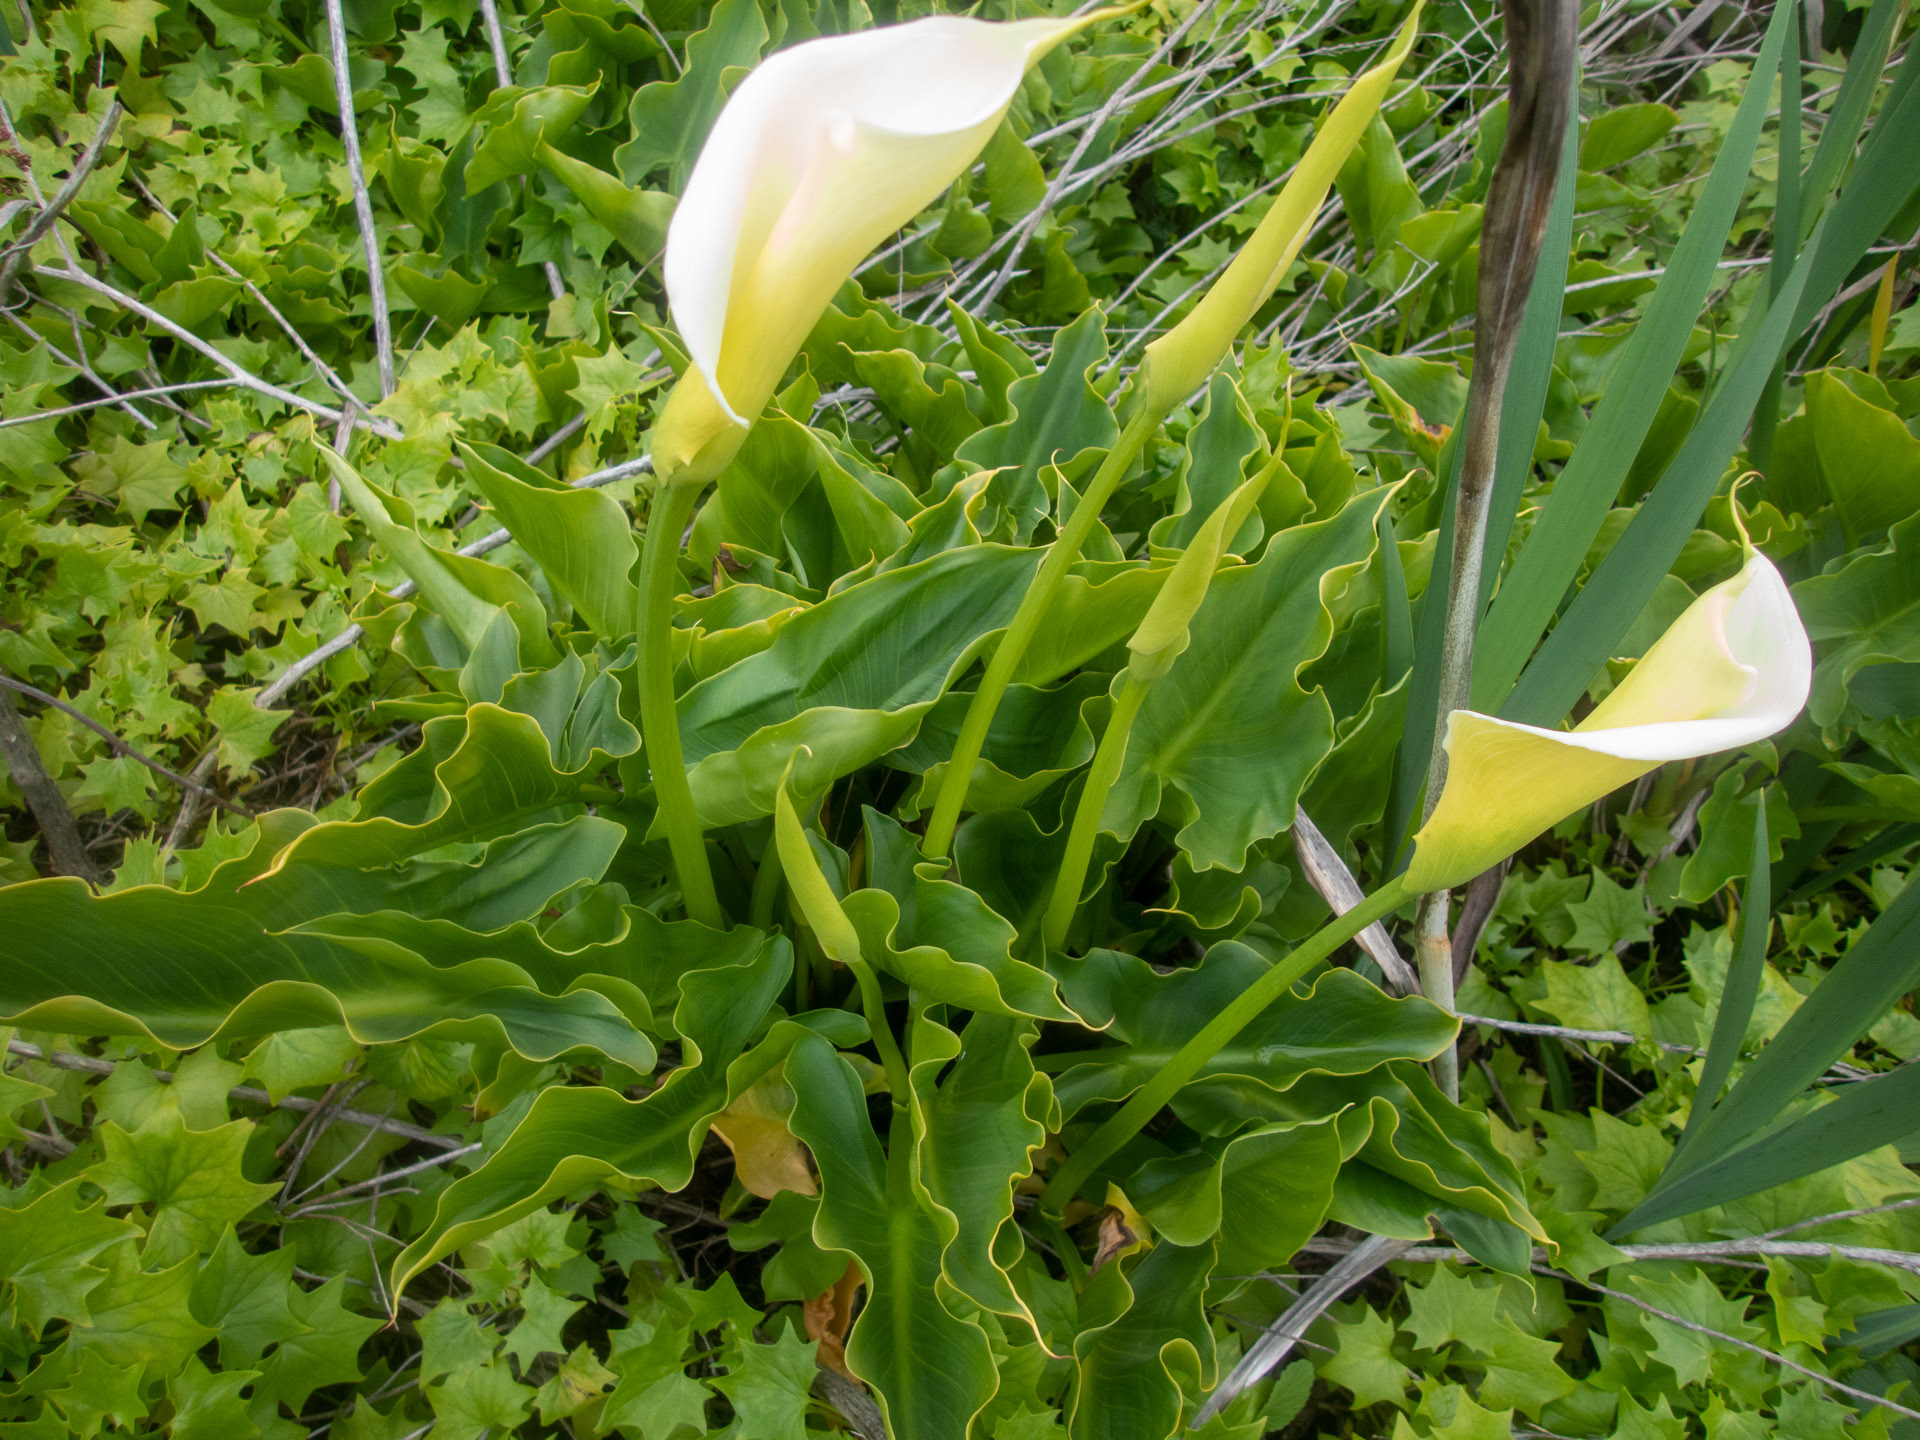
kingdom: Plantae
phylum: Tracheophyta
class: Liliopsida
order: Alismatales
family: Araceae
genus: Zantedeschia
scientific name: Zantedeschia aethiopica
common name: Altar-lily
